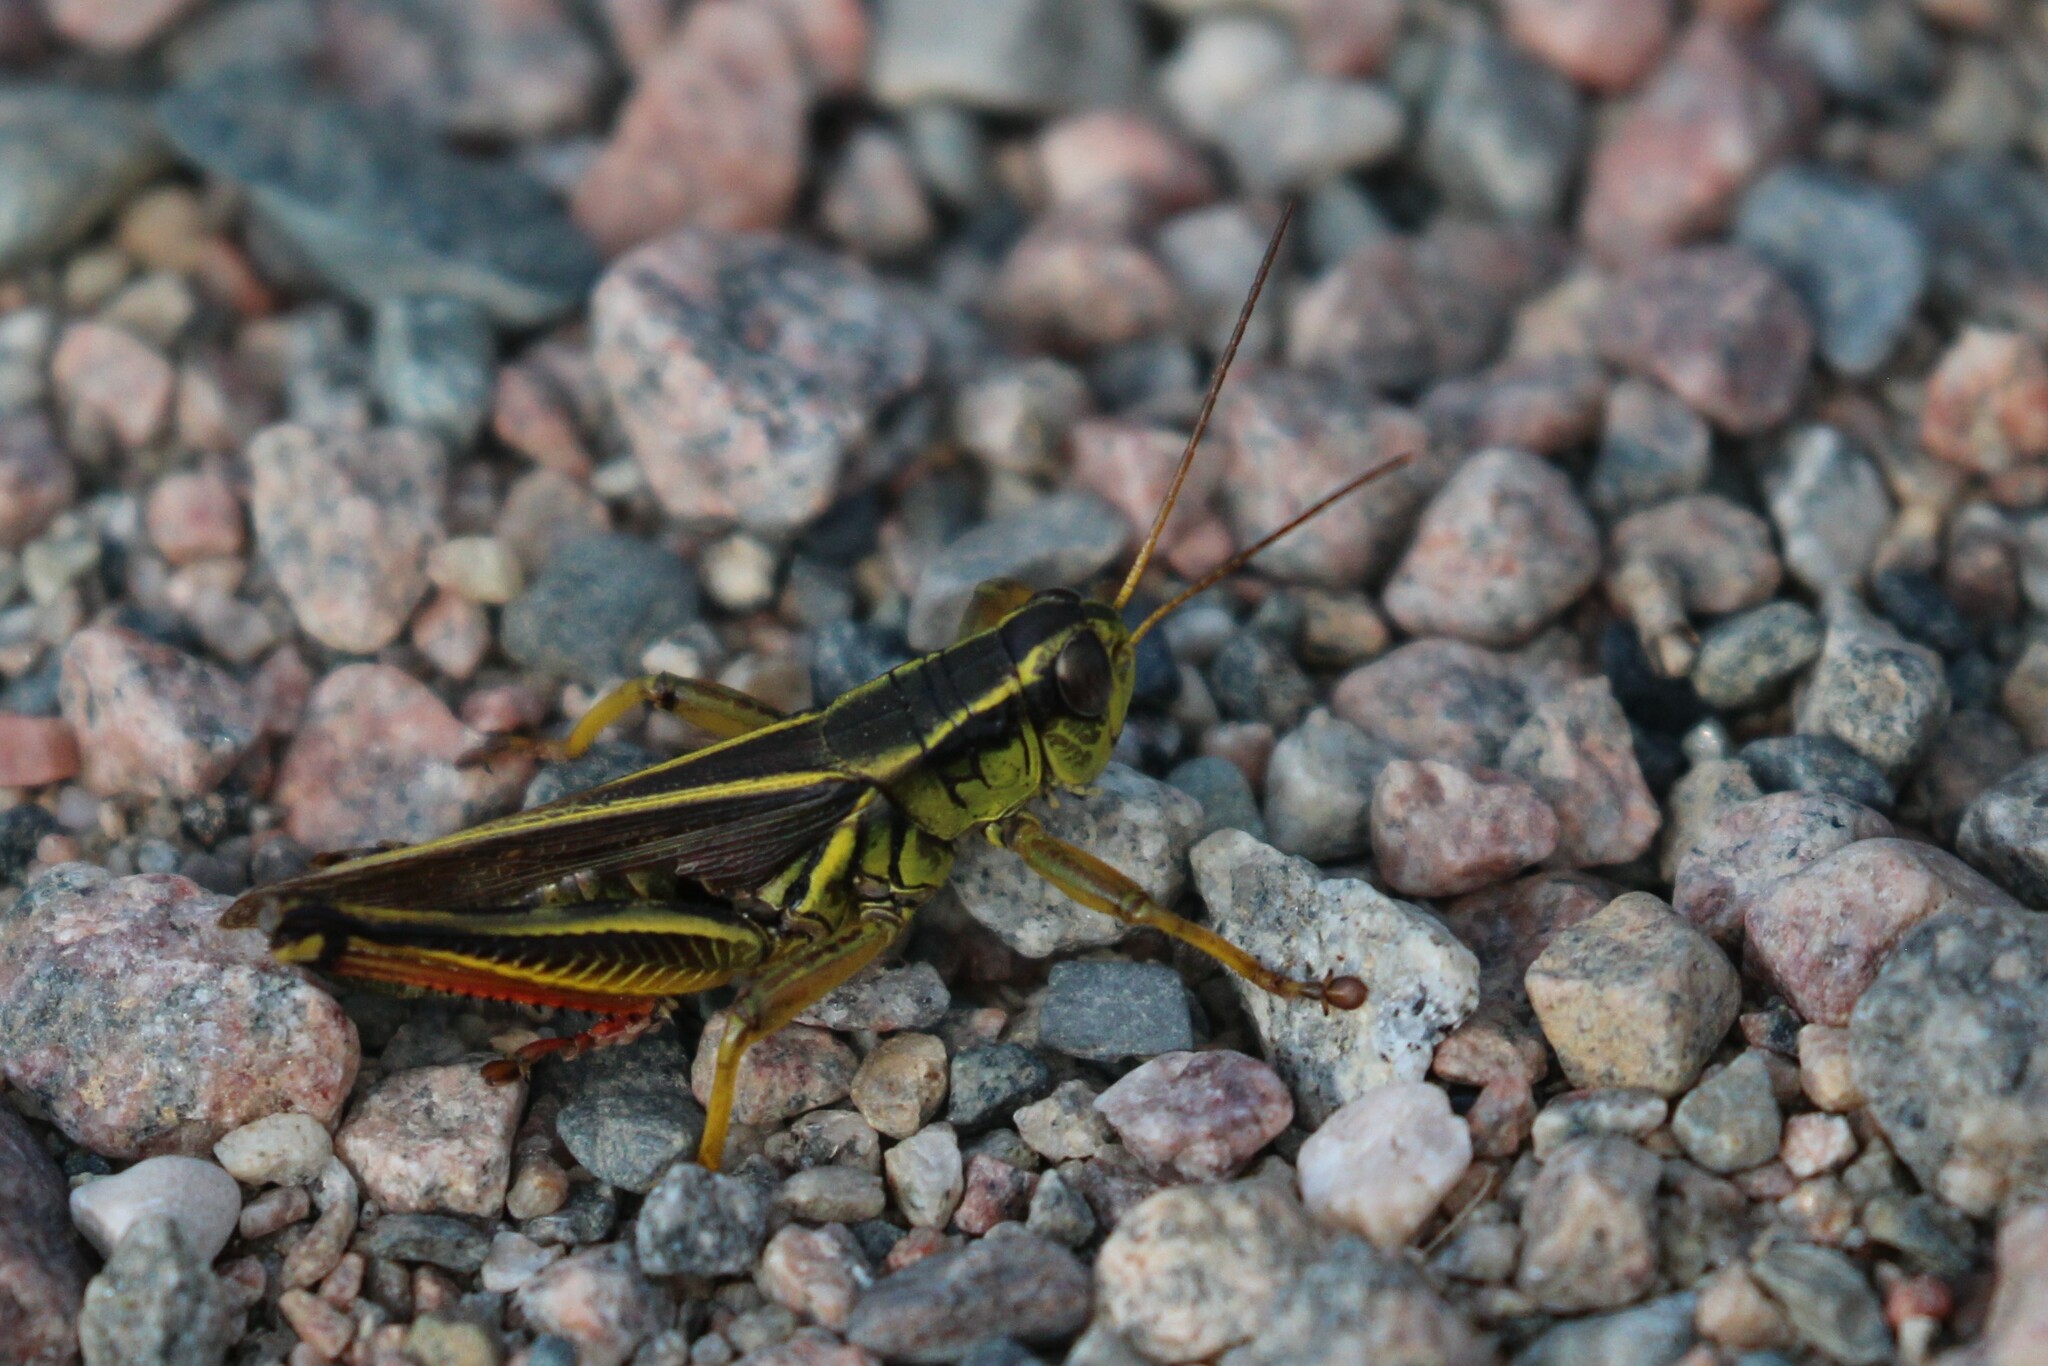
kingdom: Animalia
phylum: Arthropoda
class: Insecta
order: Orthoptera
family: Acrididae
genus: Melanoplus
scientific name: Melanoplus bivittatus
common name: Two-striped grasshopper
